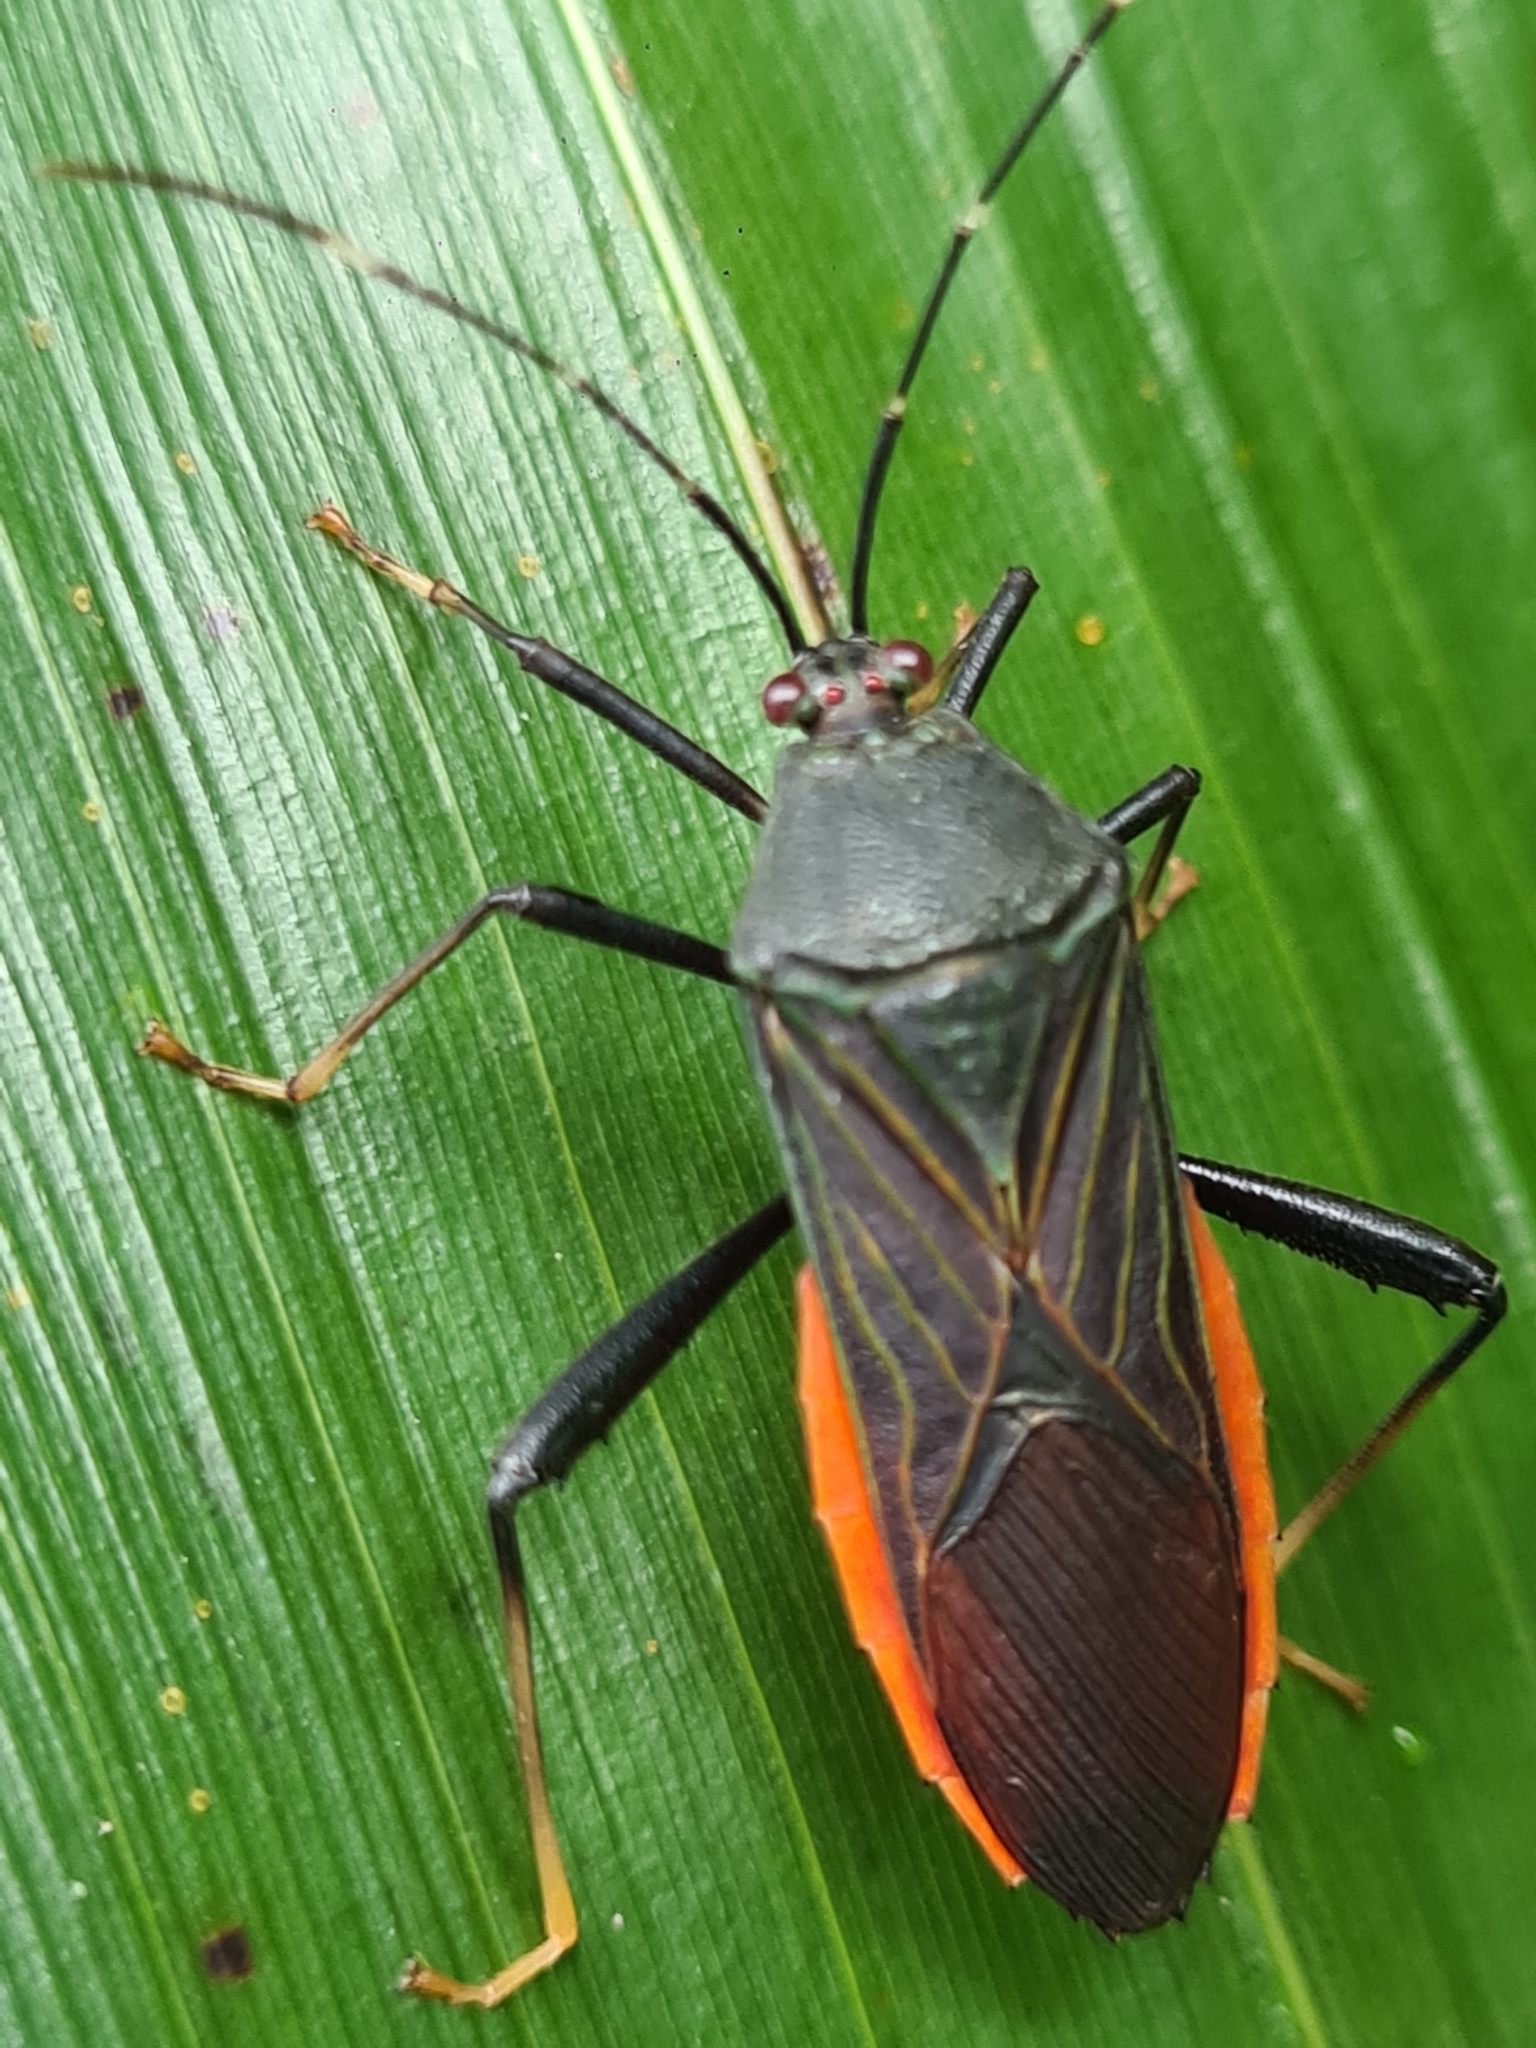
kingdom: Animalia
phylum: Arthropoda
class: Insecta
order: Hemiptera
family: Coreidae
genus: Nematopus
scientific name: Nematopus indus
